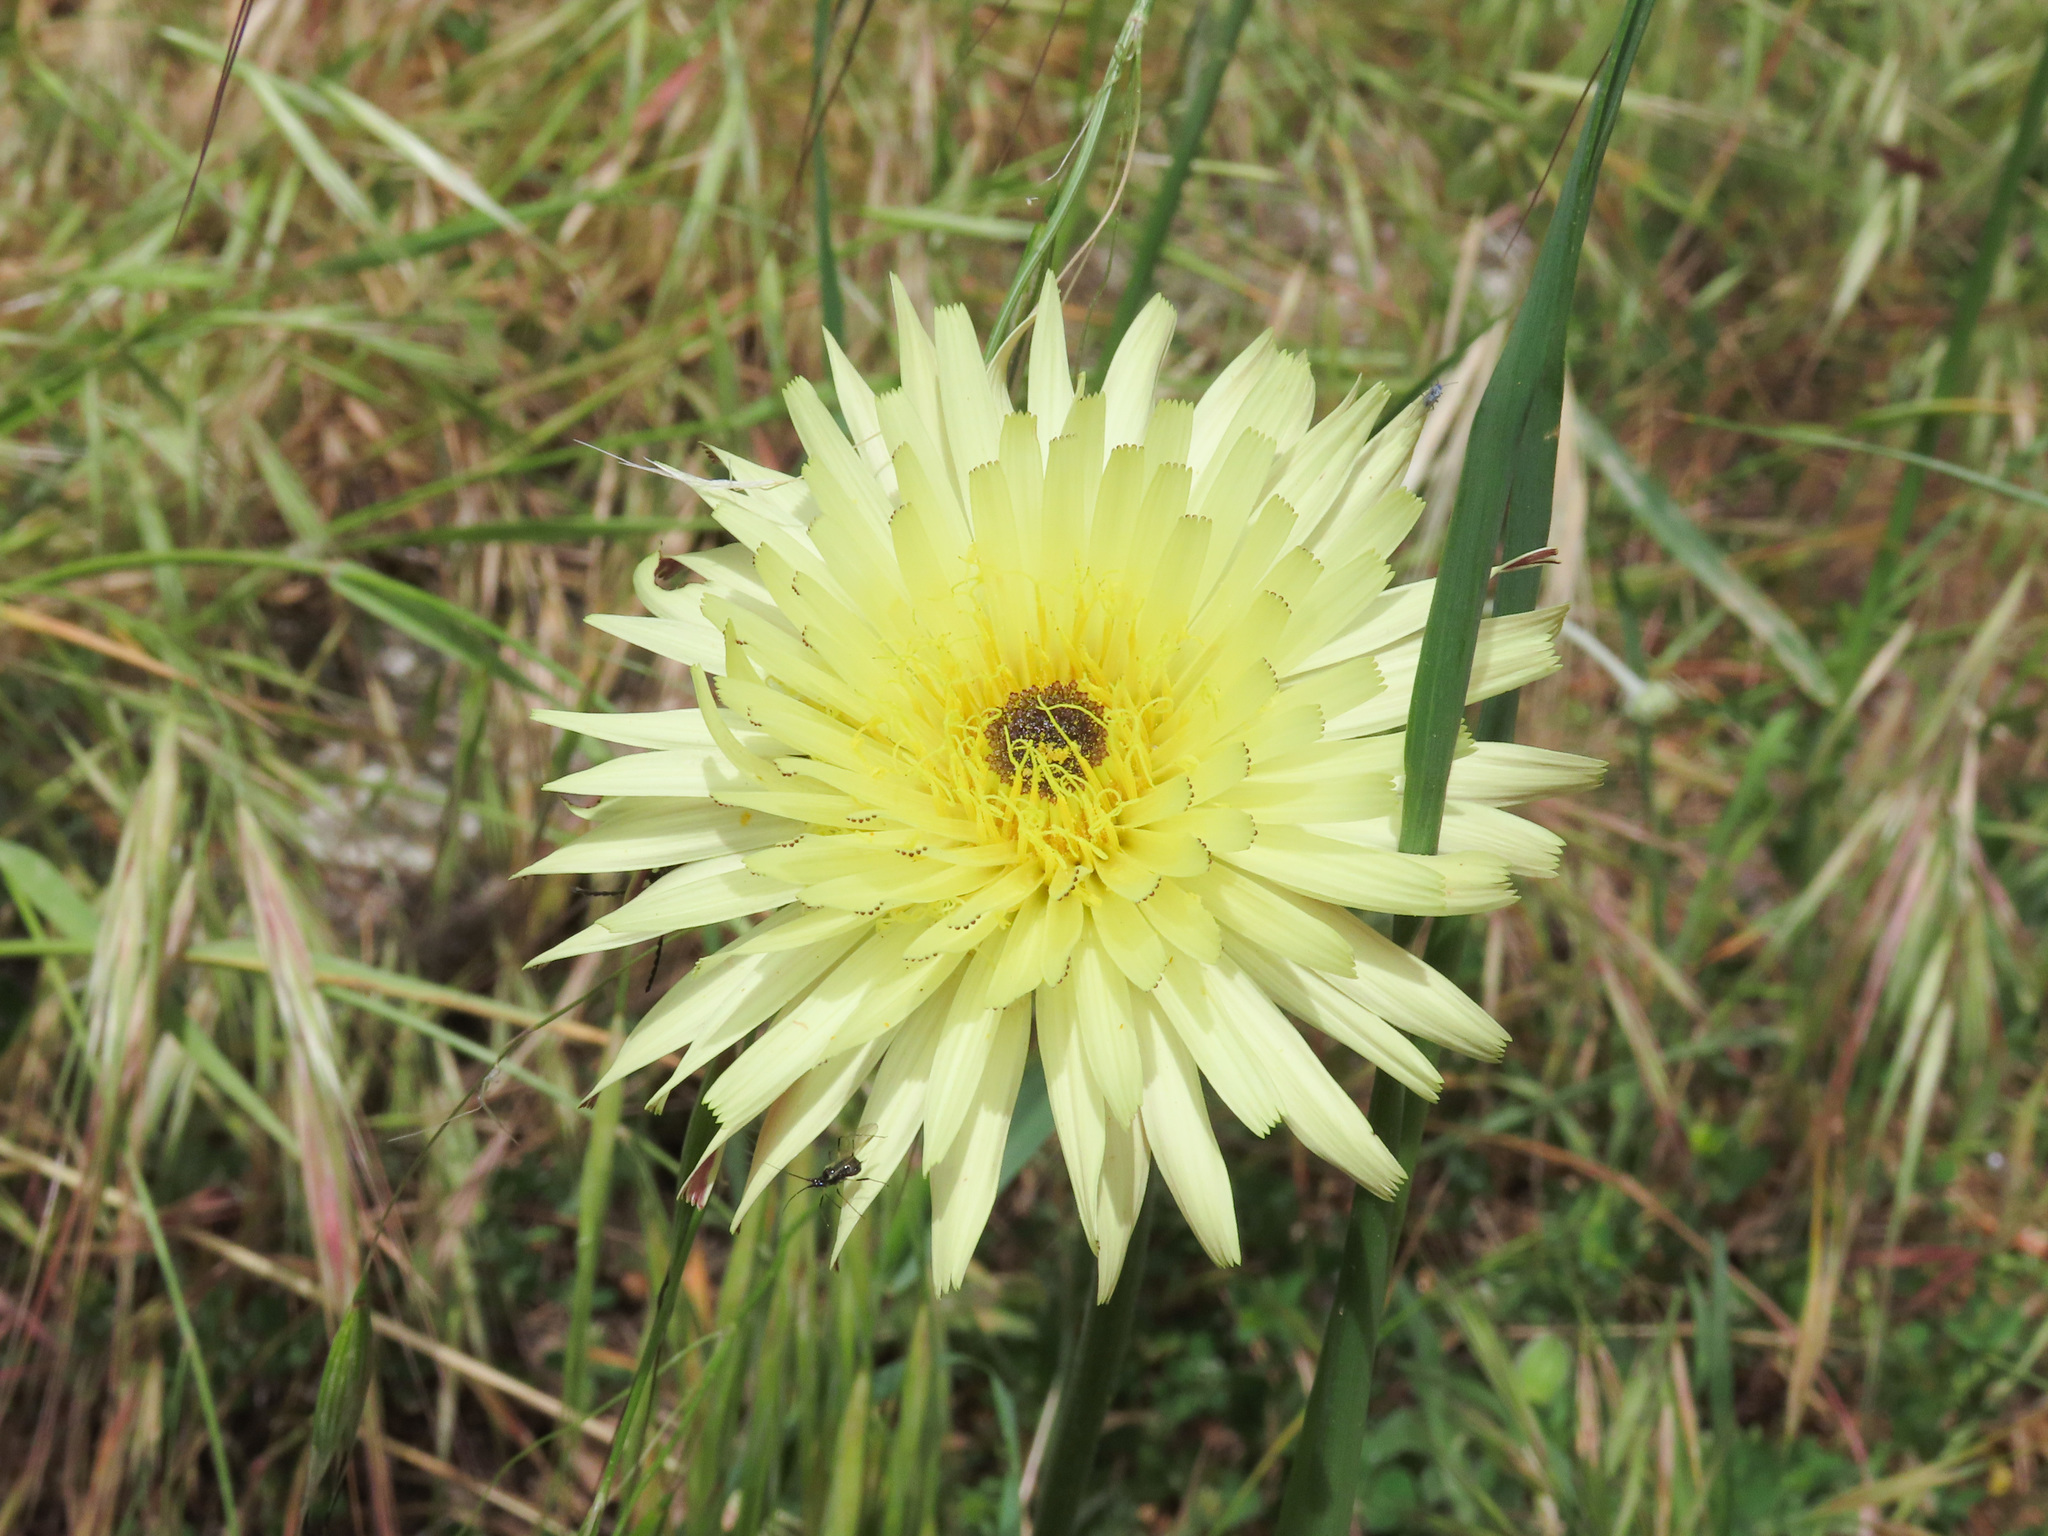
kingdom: Plantae
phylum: Tracheophyta
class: Magnoliopsida
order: Asterales
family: Asteraceae
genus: Urospermum
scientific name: Urospermum dalechampii
